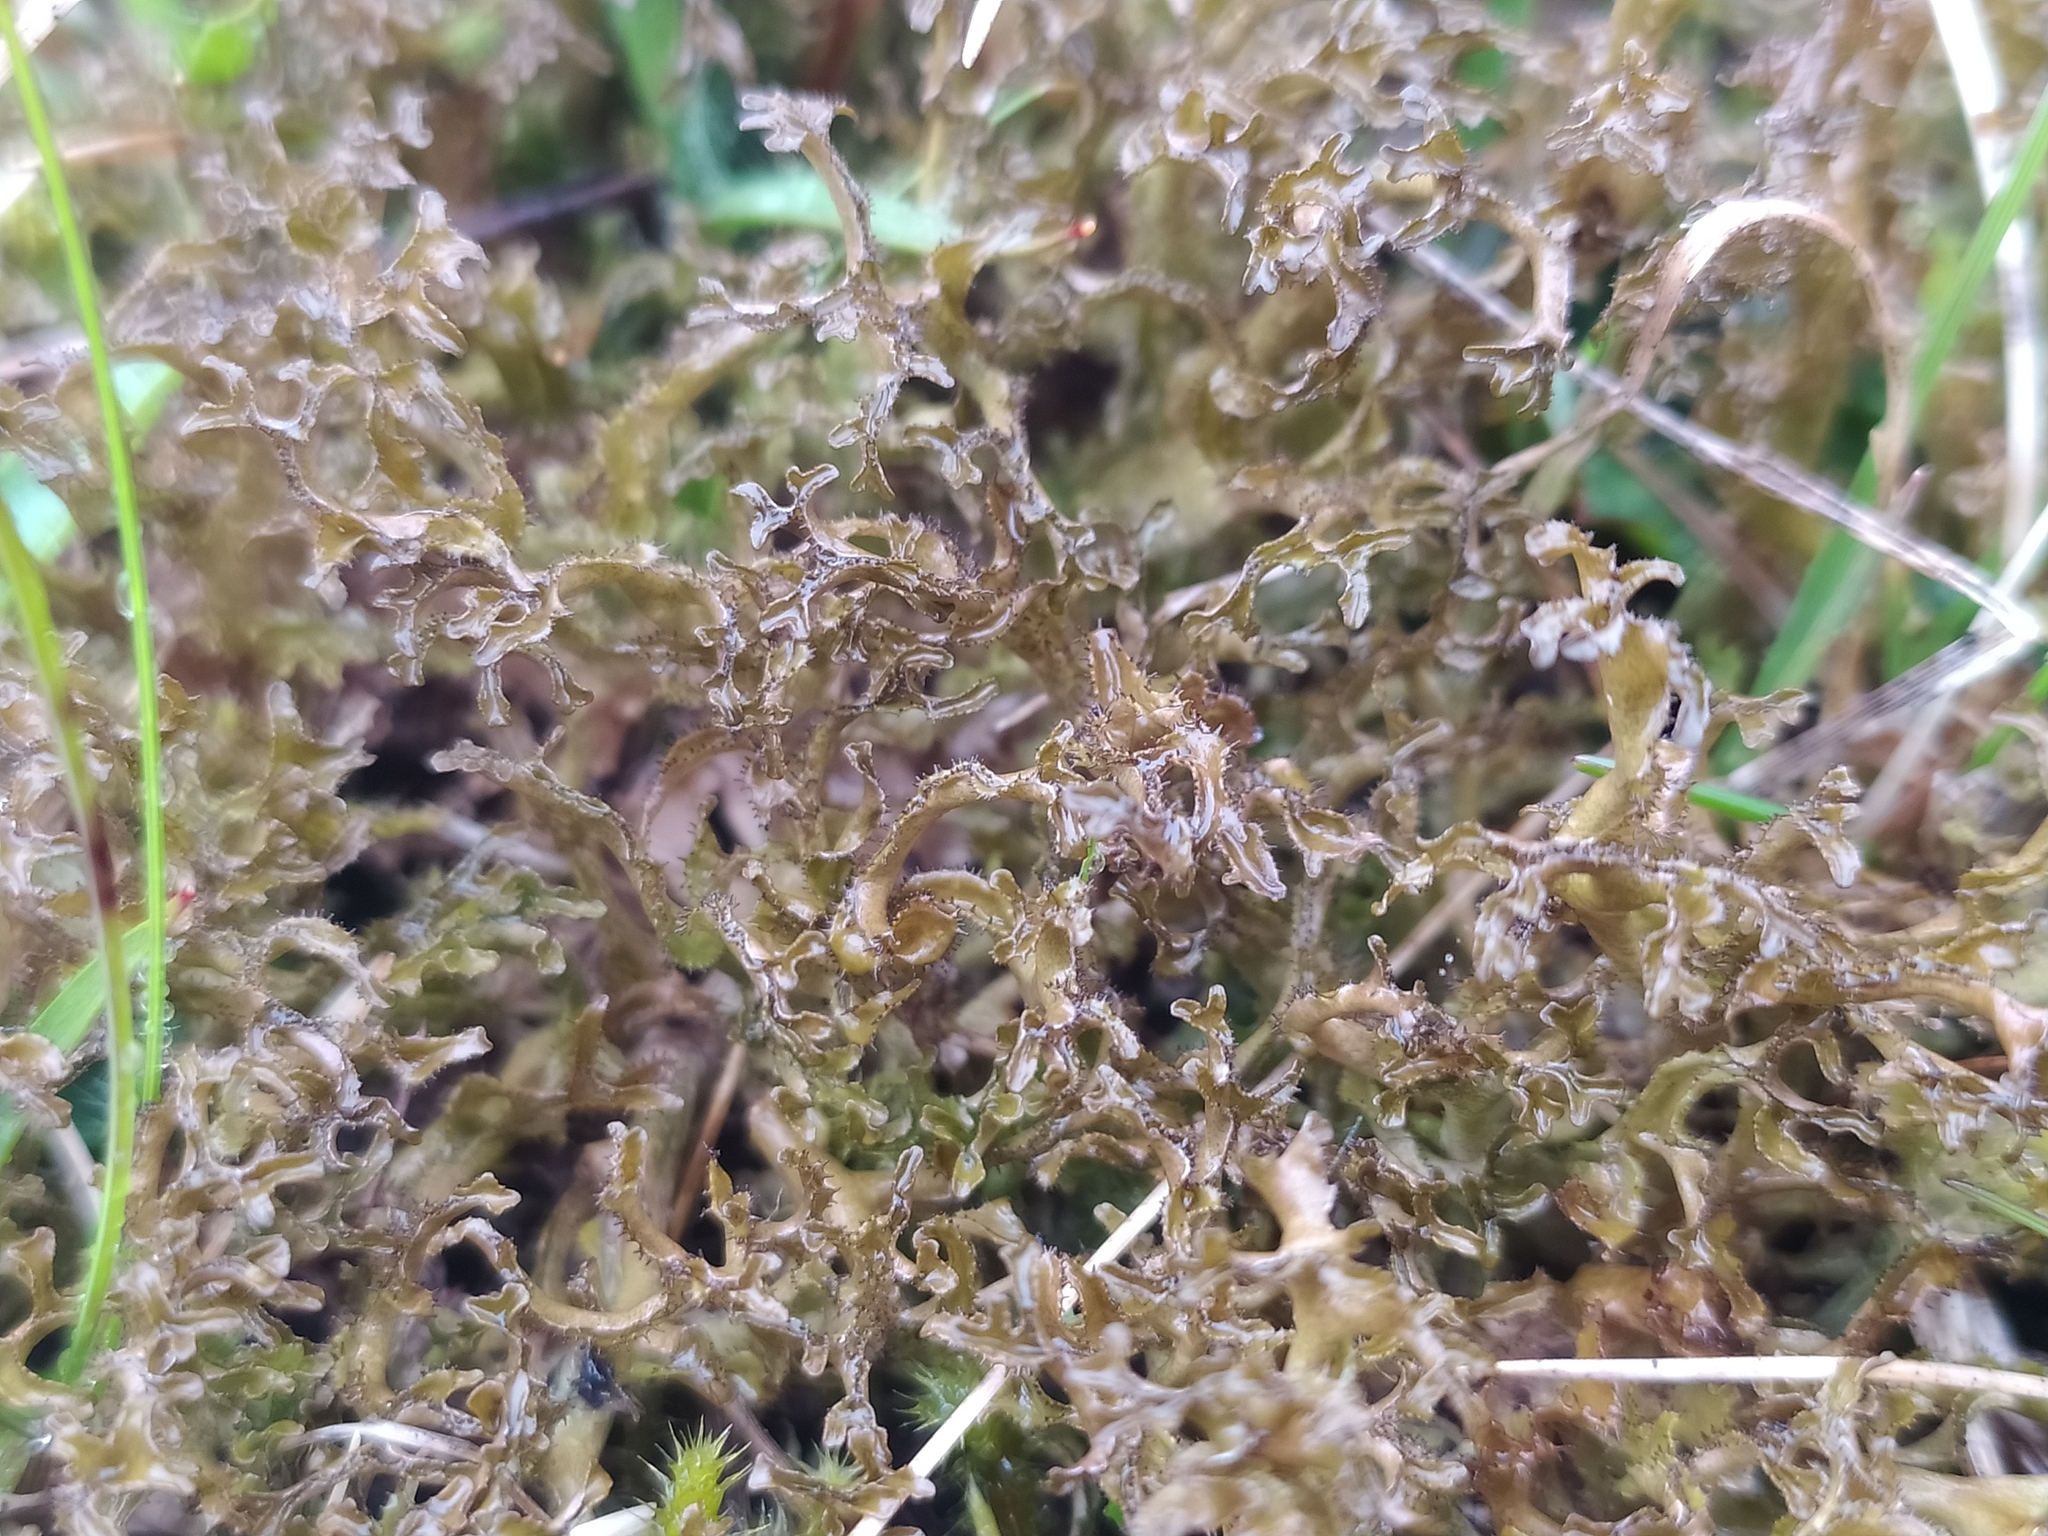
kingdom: Fungi
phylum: Ascomycota
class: Lecanoromycetes
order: Lecanorales
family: Parmeliaceae
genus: Cetraria
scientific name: Cetraria islandica
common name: Iceland lichen
